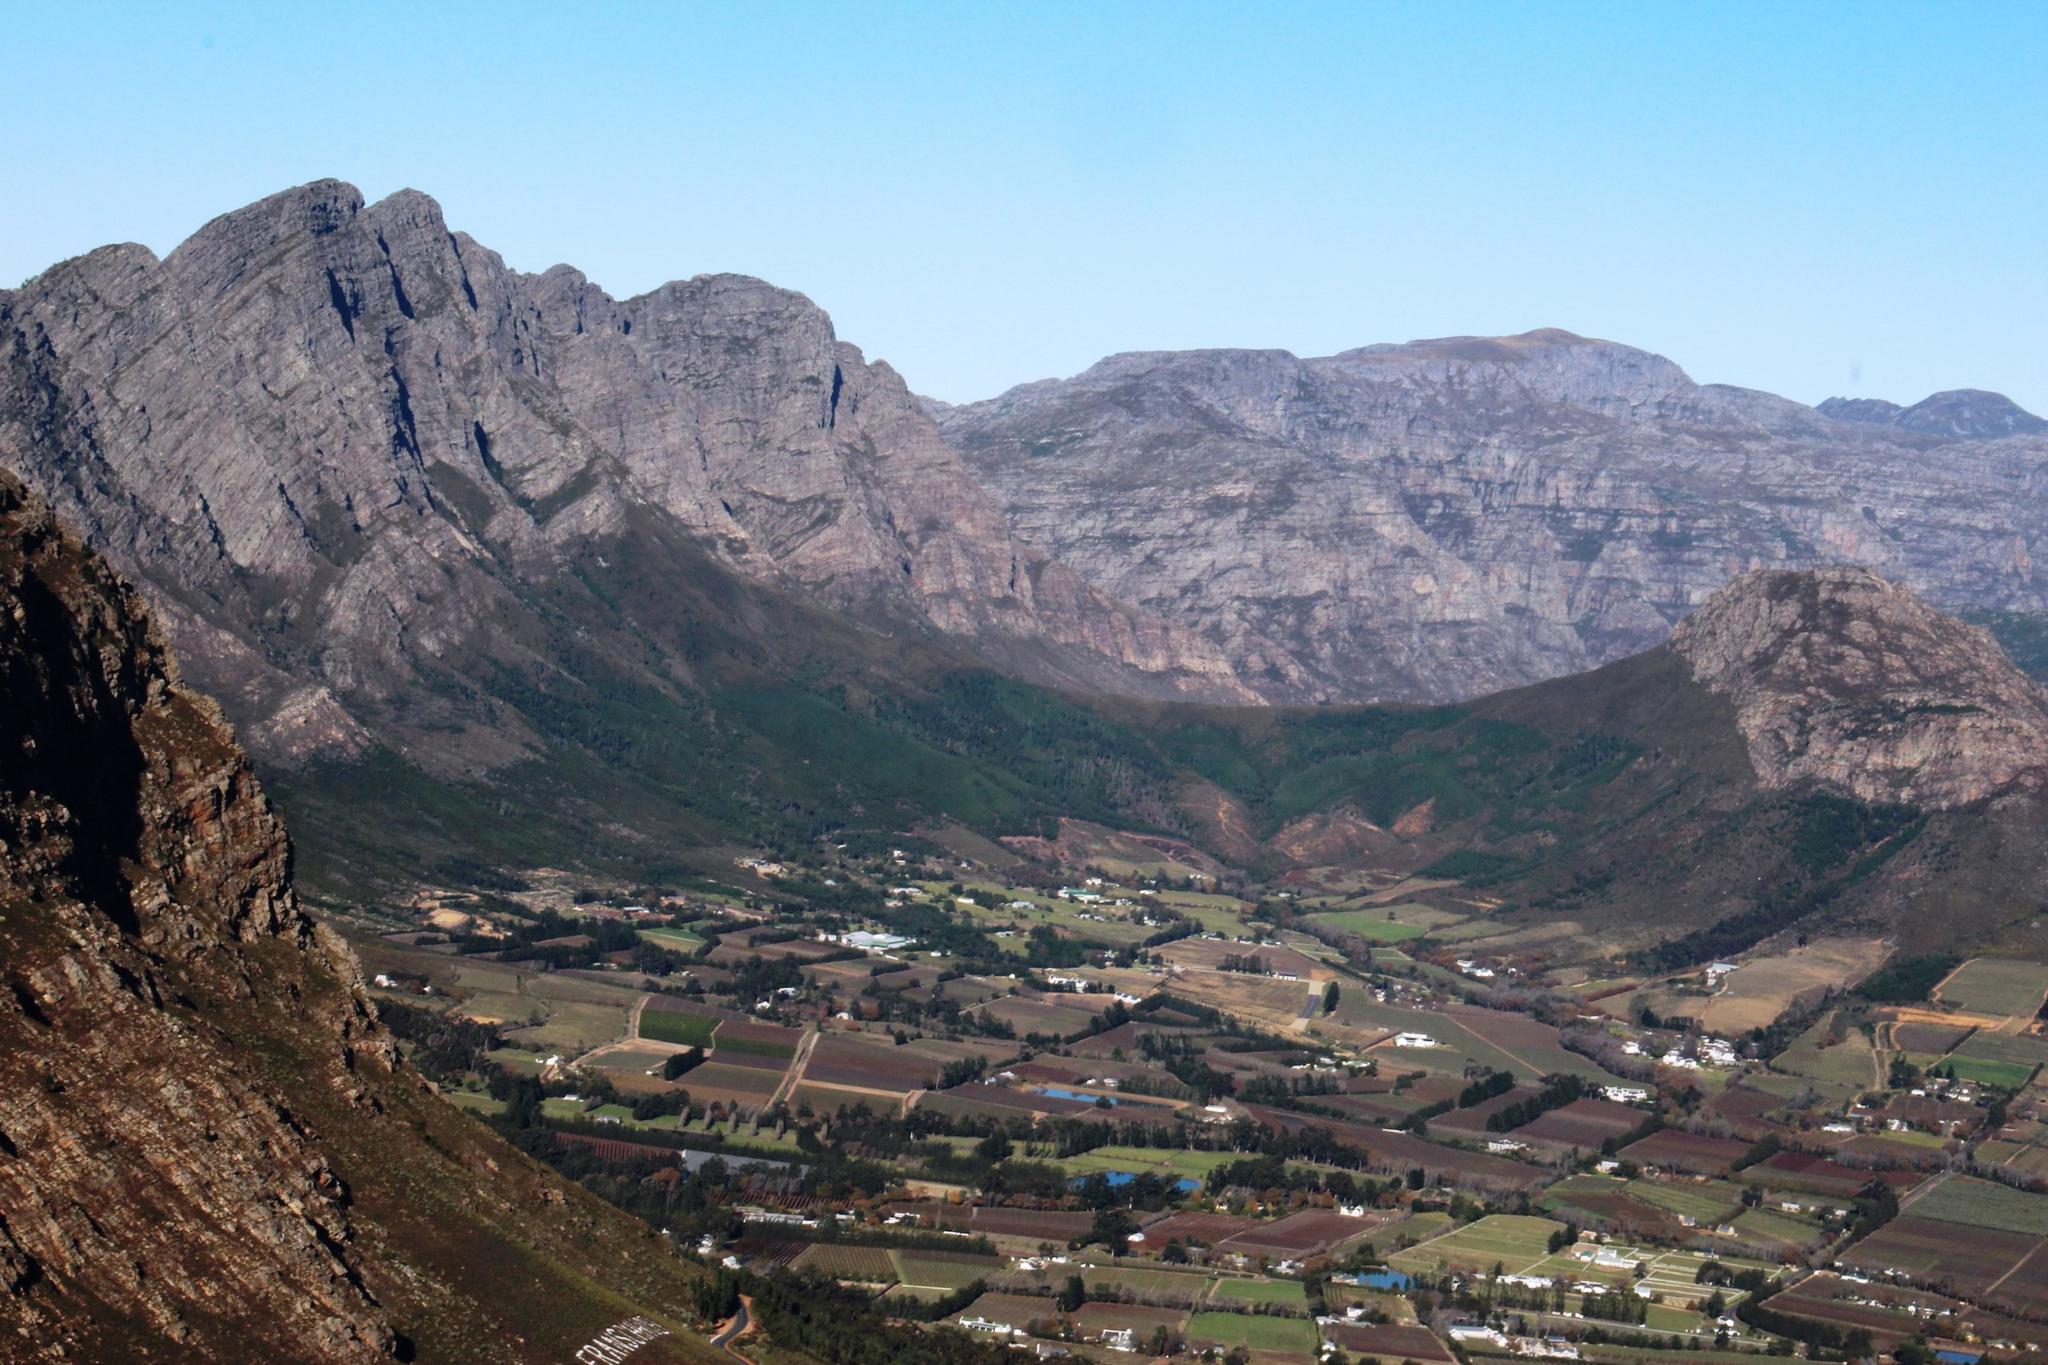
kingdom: Plantae
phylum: Tracheophyta
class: Pinopsida
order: Pinales
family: Pinaceae
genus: Pinus
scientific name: Pinus pinaster
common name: Maritime pine
